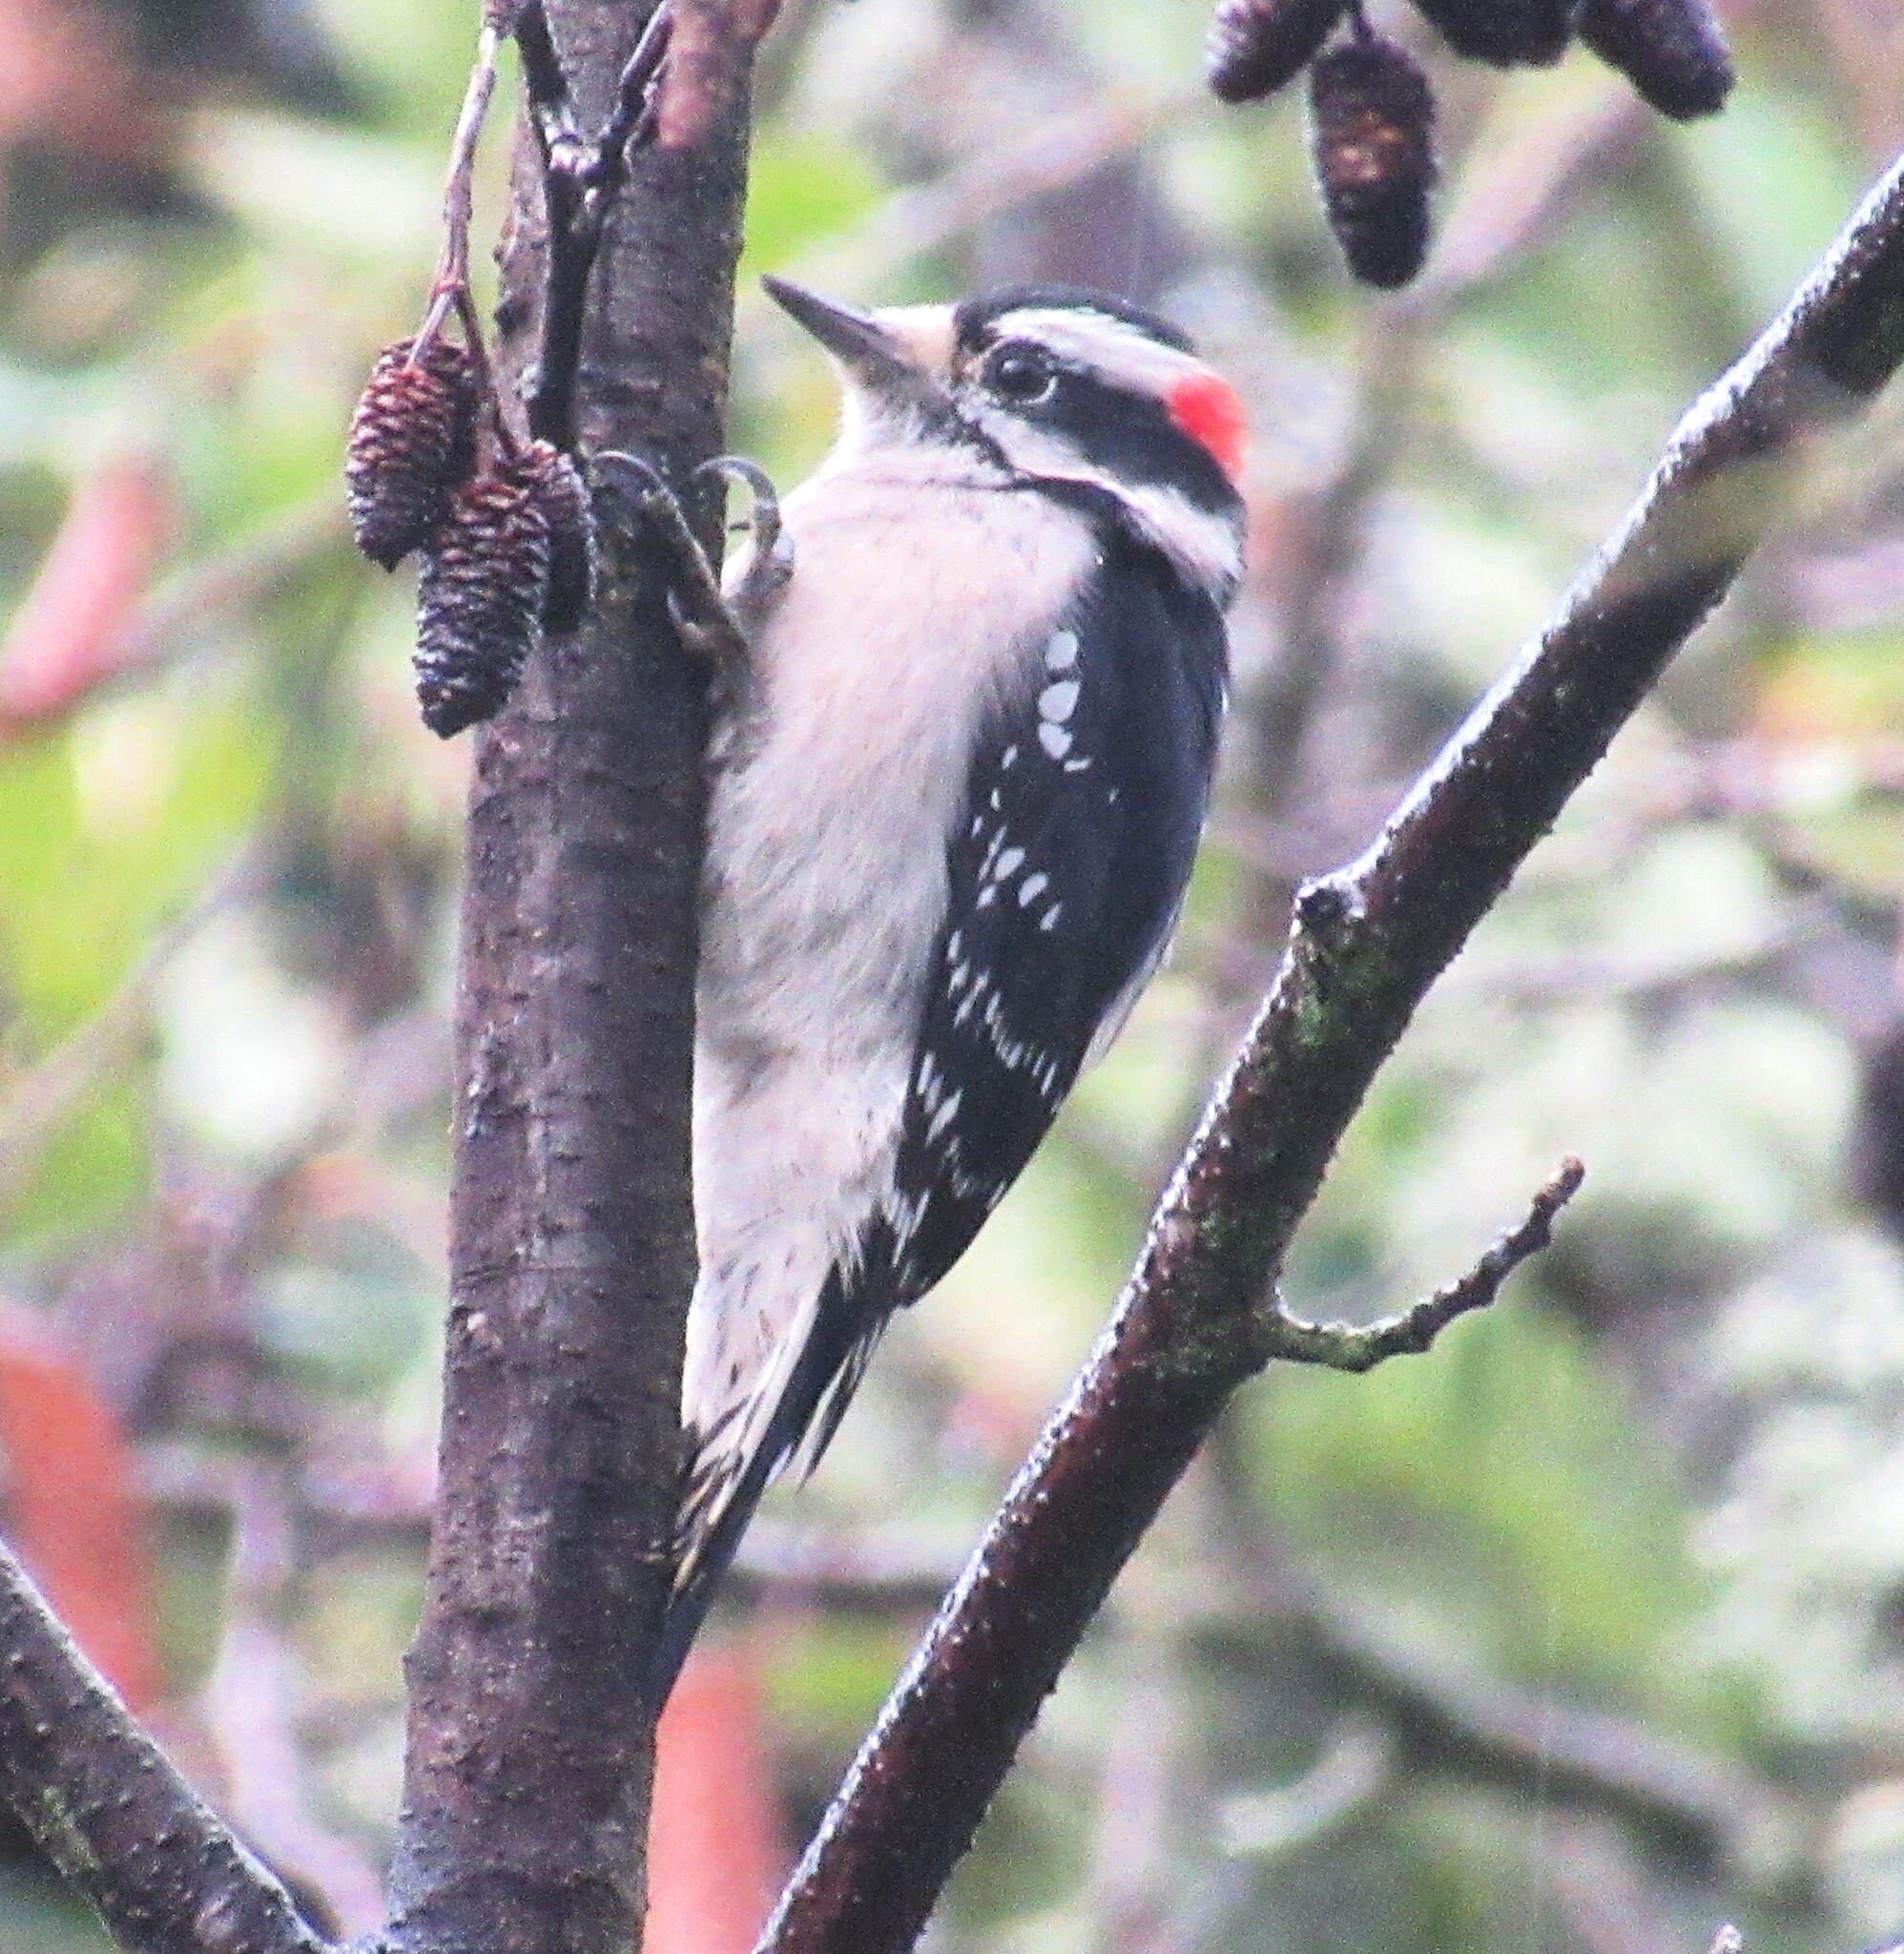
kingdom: Animalia
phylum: Chordata
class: Aves
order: Piciformes
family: Picidae
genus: Dryobates
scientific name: Dryobates pubescens
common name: Downy woodpecker
